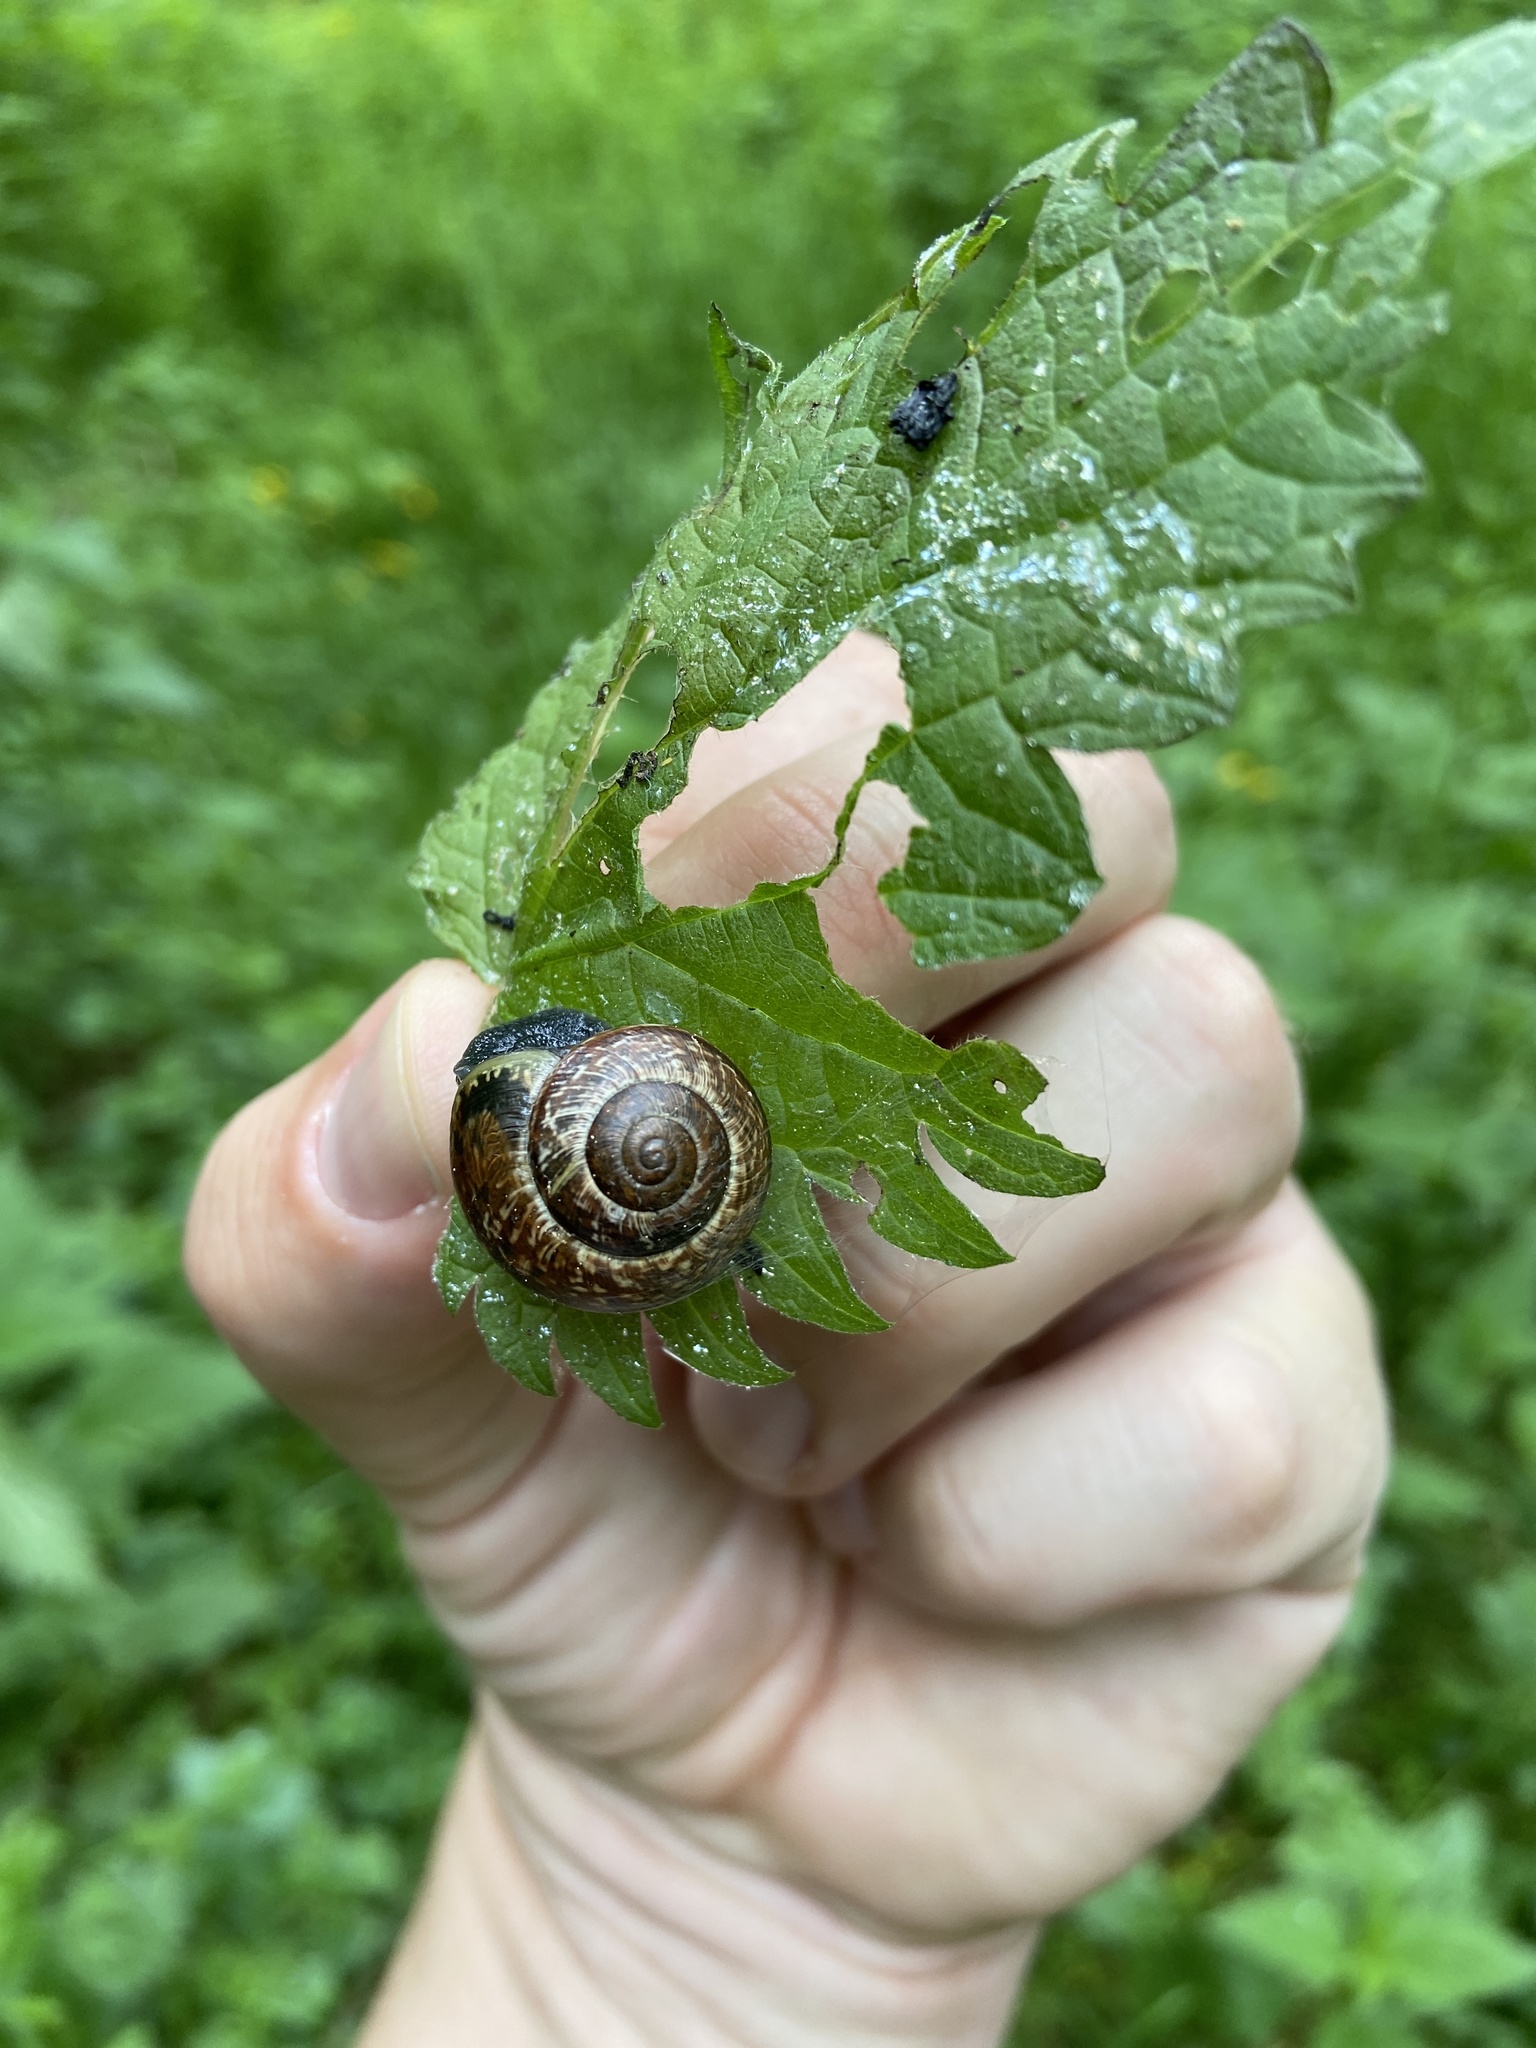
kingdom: Animalia
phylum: Mollusca
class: Gastropoda
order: Stylommatophora
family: Helicidae
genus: Arianta
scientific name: Arianta arbustorum
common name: Copse snail
